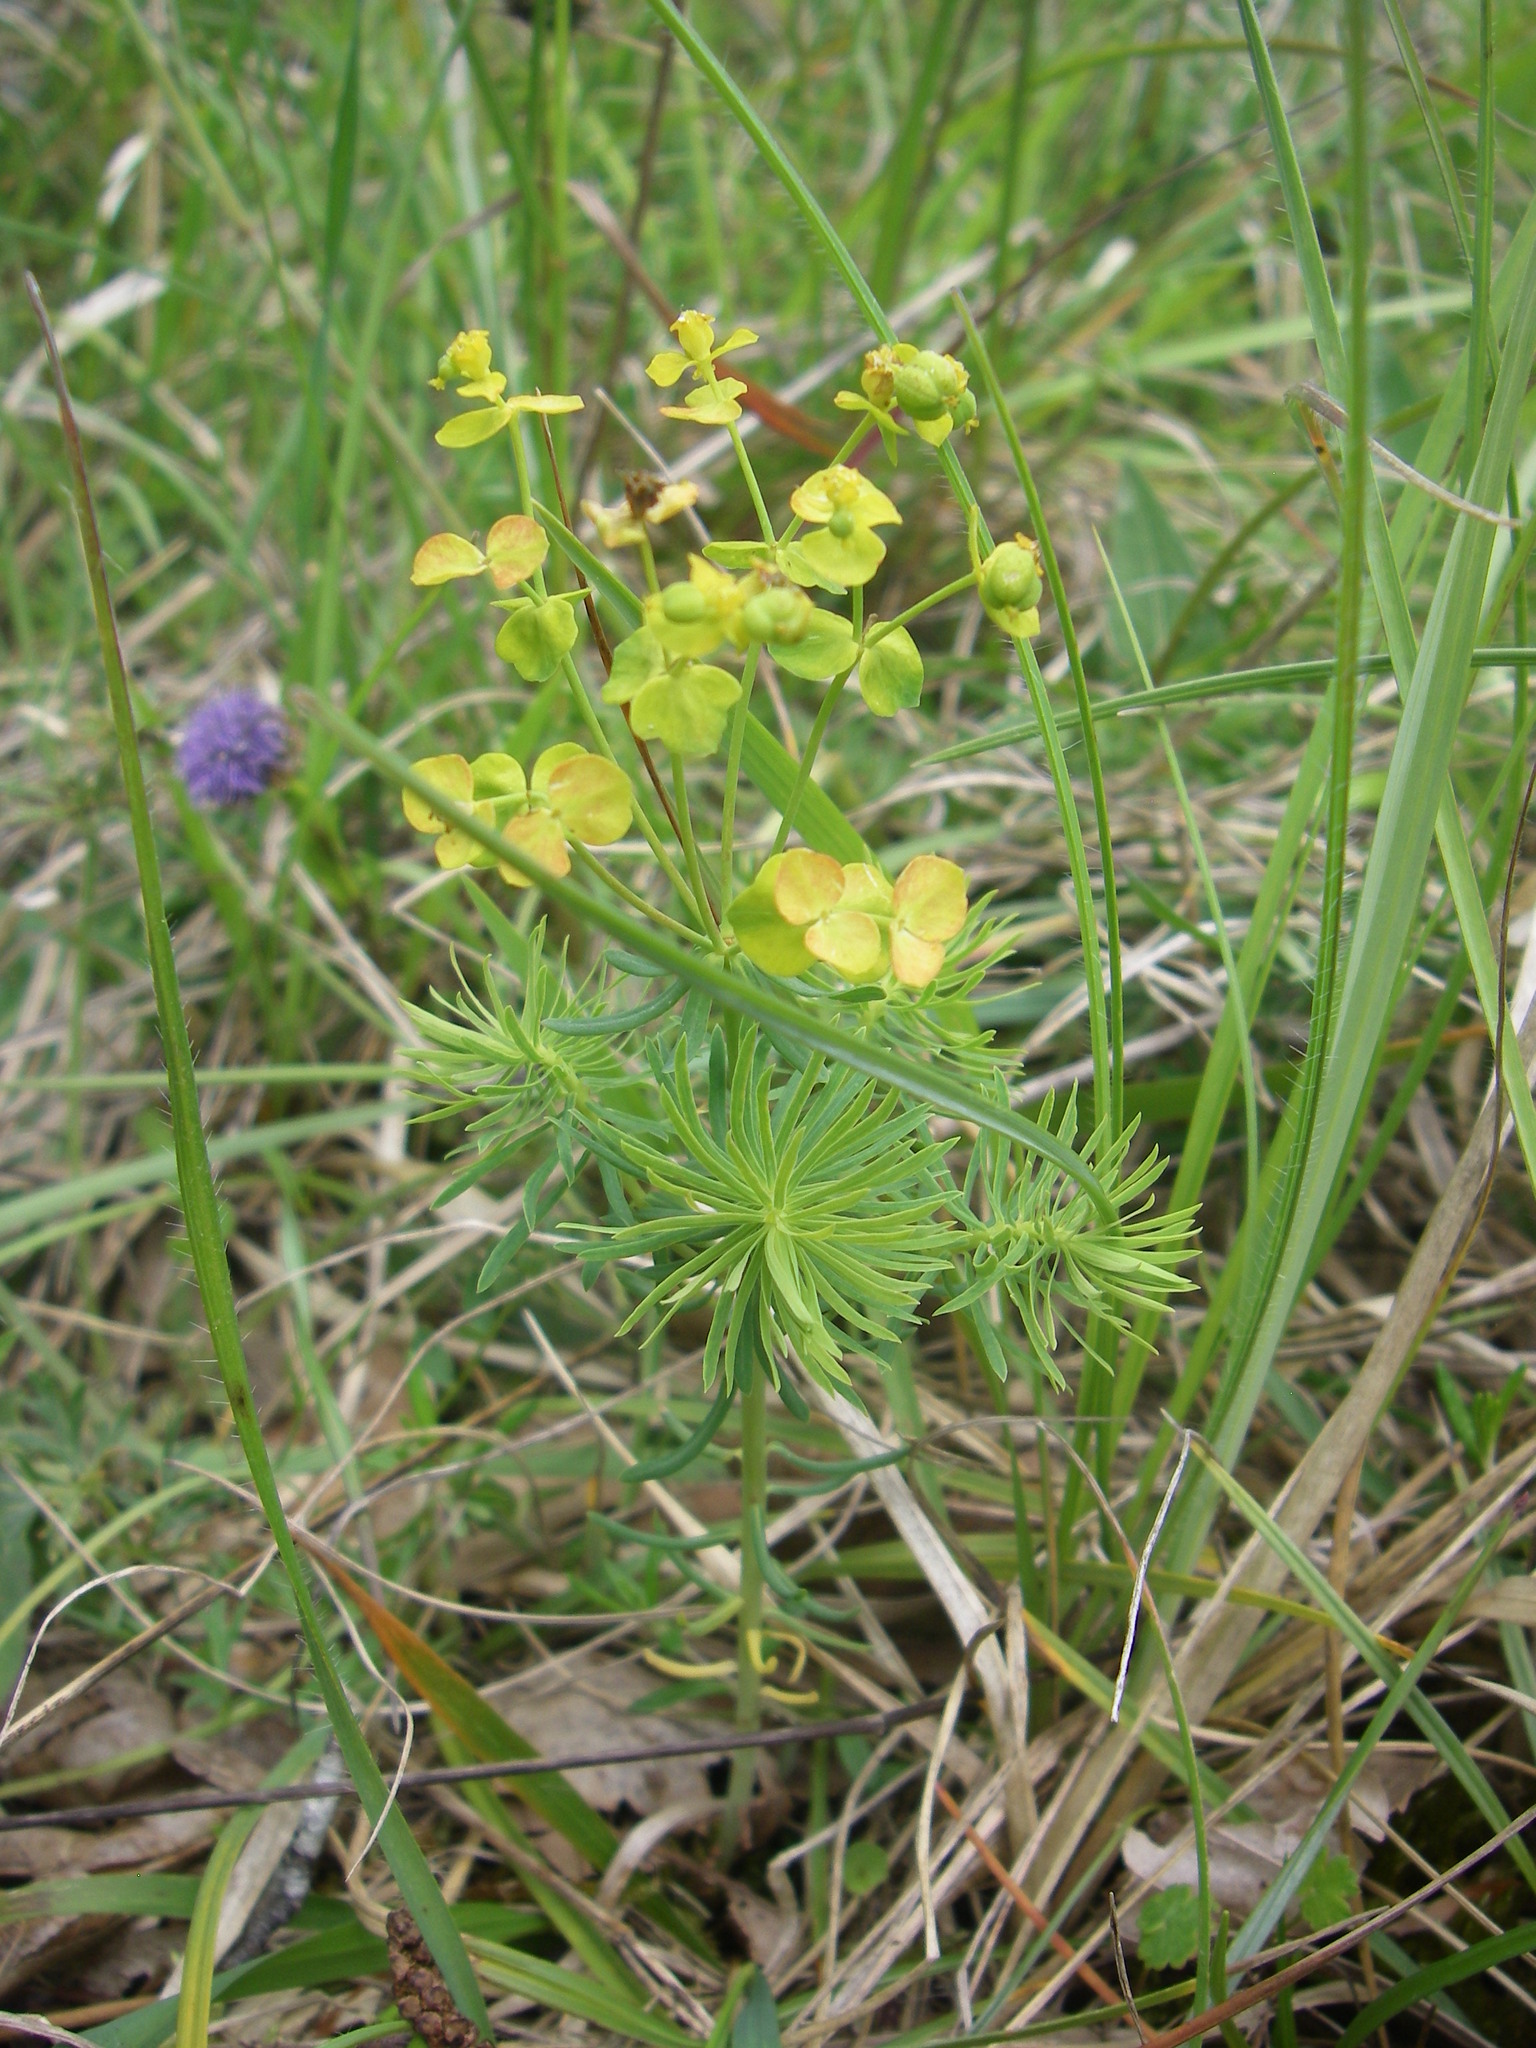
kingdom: Plantae
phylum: Tracheophyta
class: Magnoliopsida
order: Malpighiales
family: Euphorbiaceae
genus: Euphorbia
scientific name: Euphorbia cyparissias
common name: Cypress spurge
